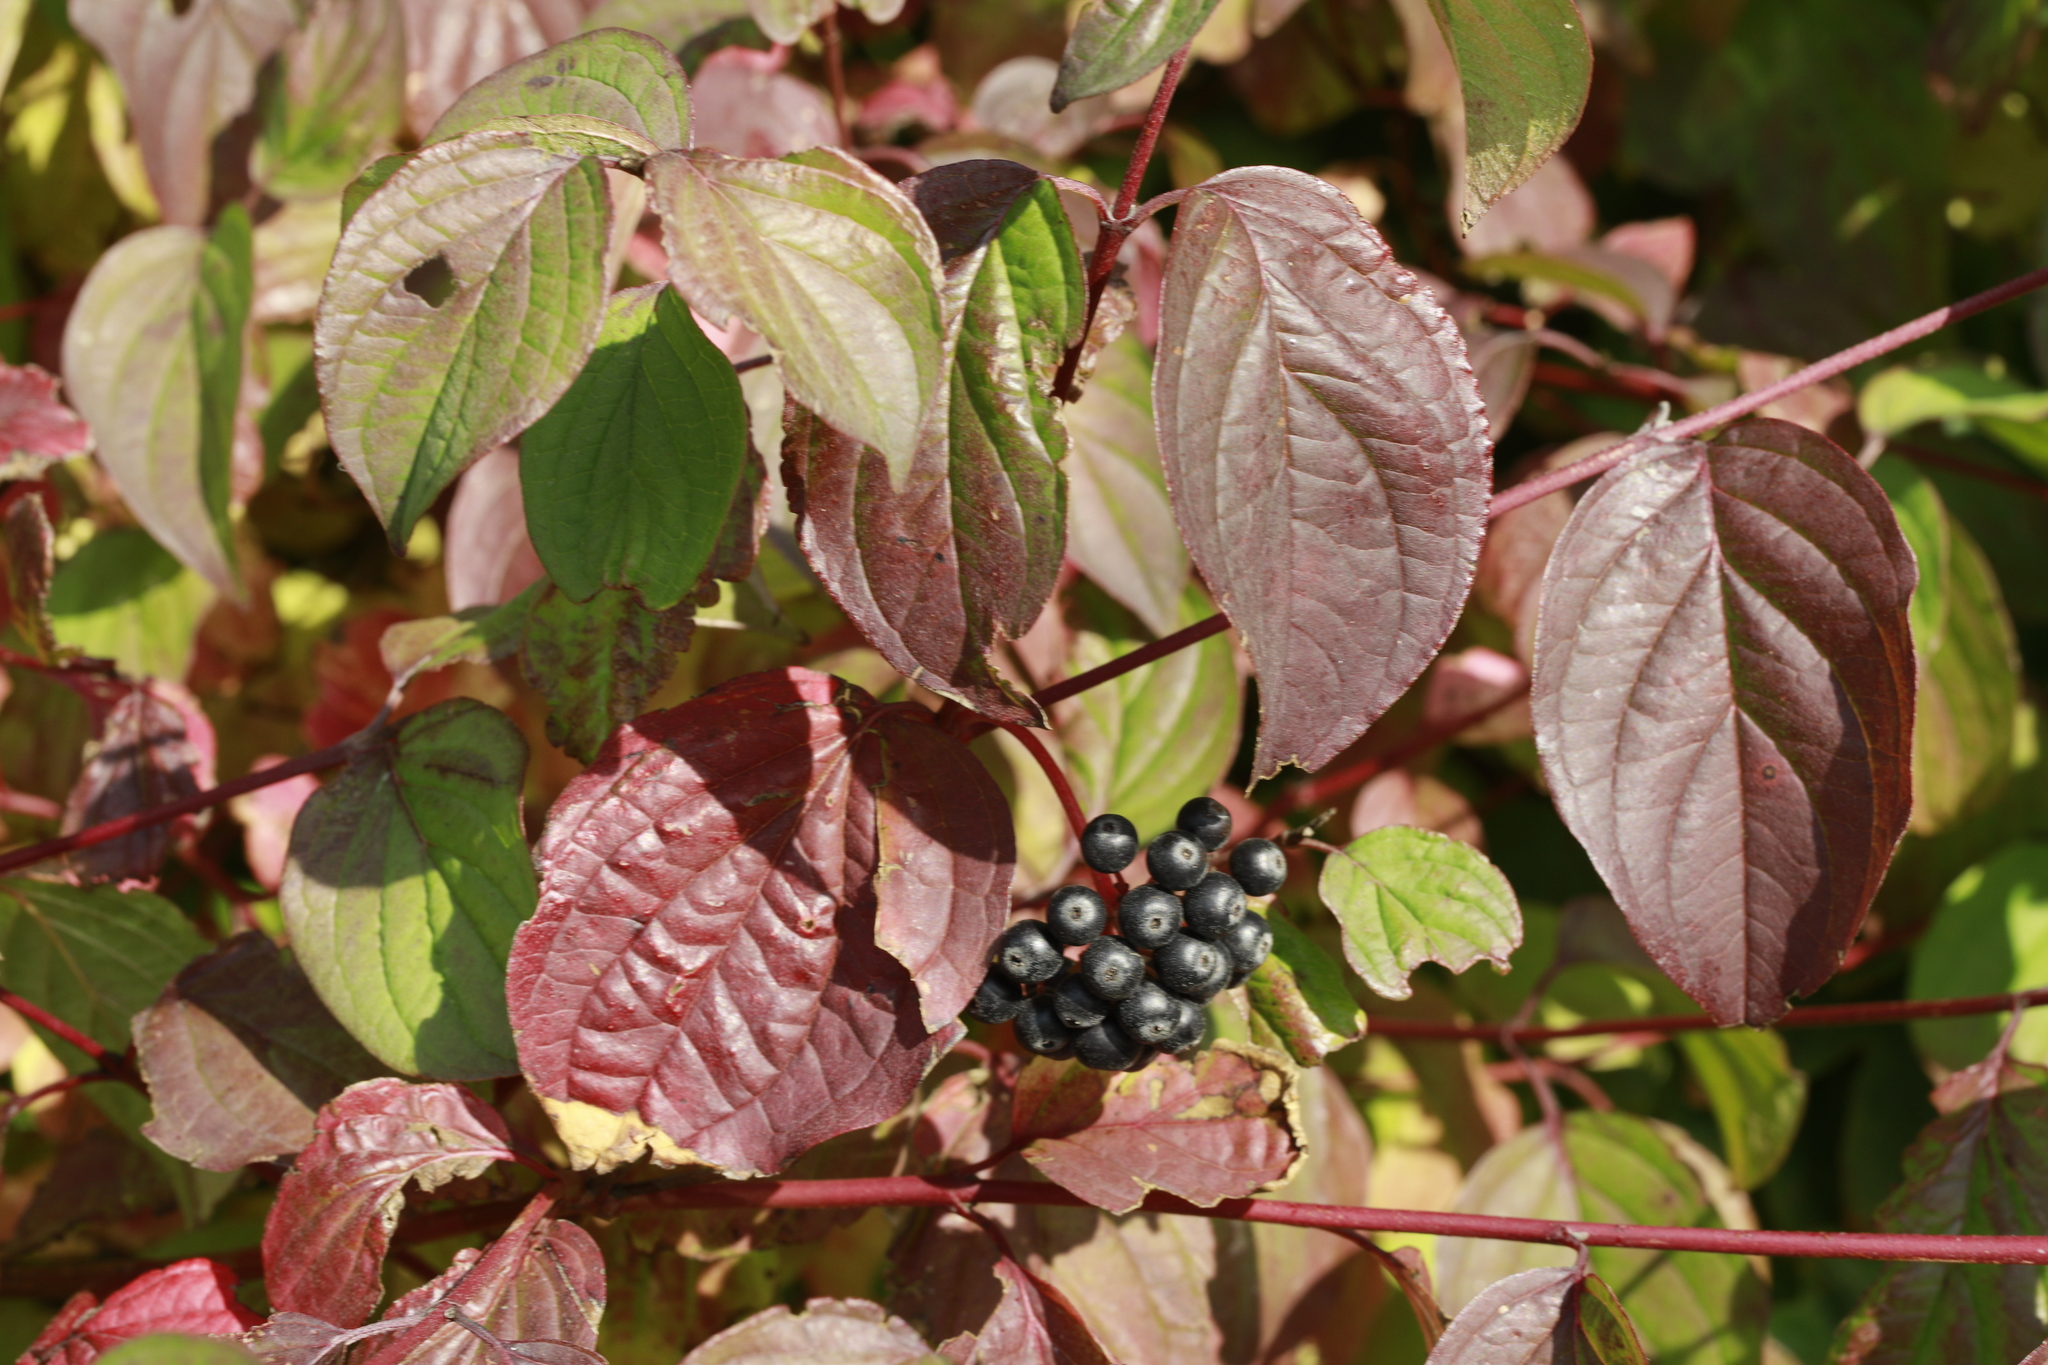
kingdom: Plantae
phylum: Tracheophyta
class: Magnoliopsida
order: Cornales
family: Cornaceae
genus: Cornus
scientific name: Cornus sanguinea
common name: Dogwood
